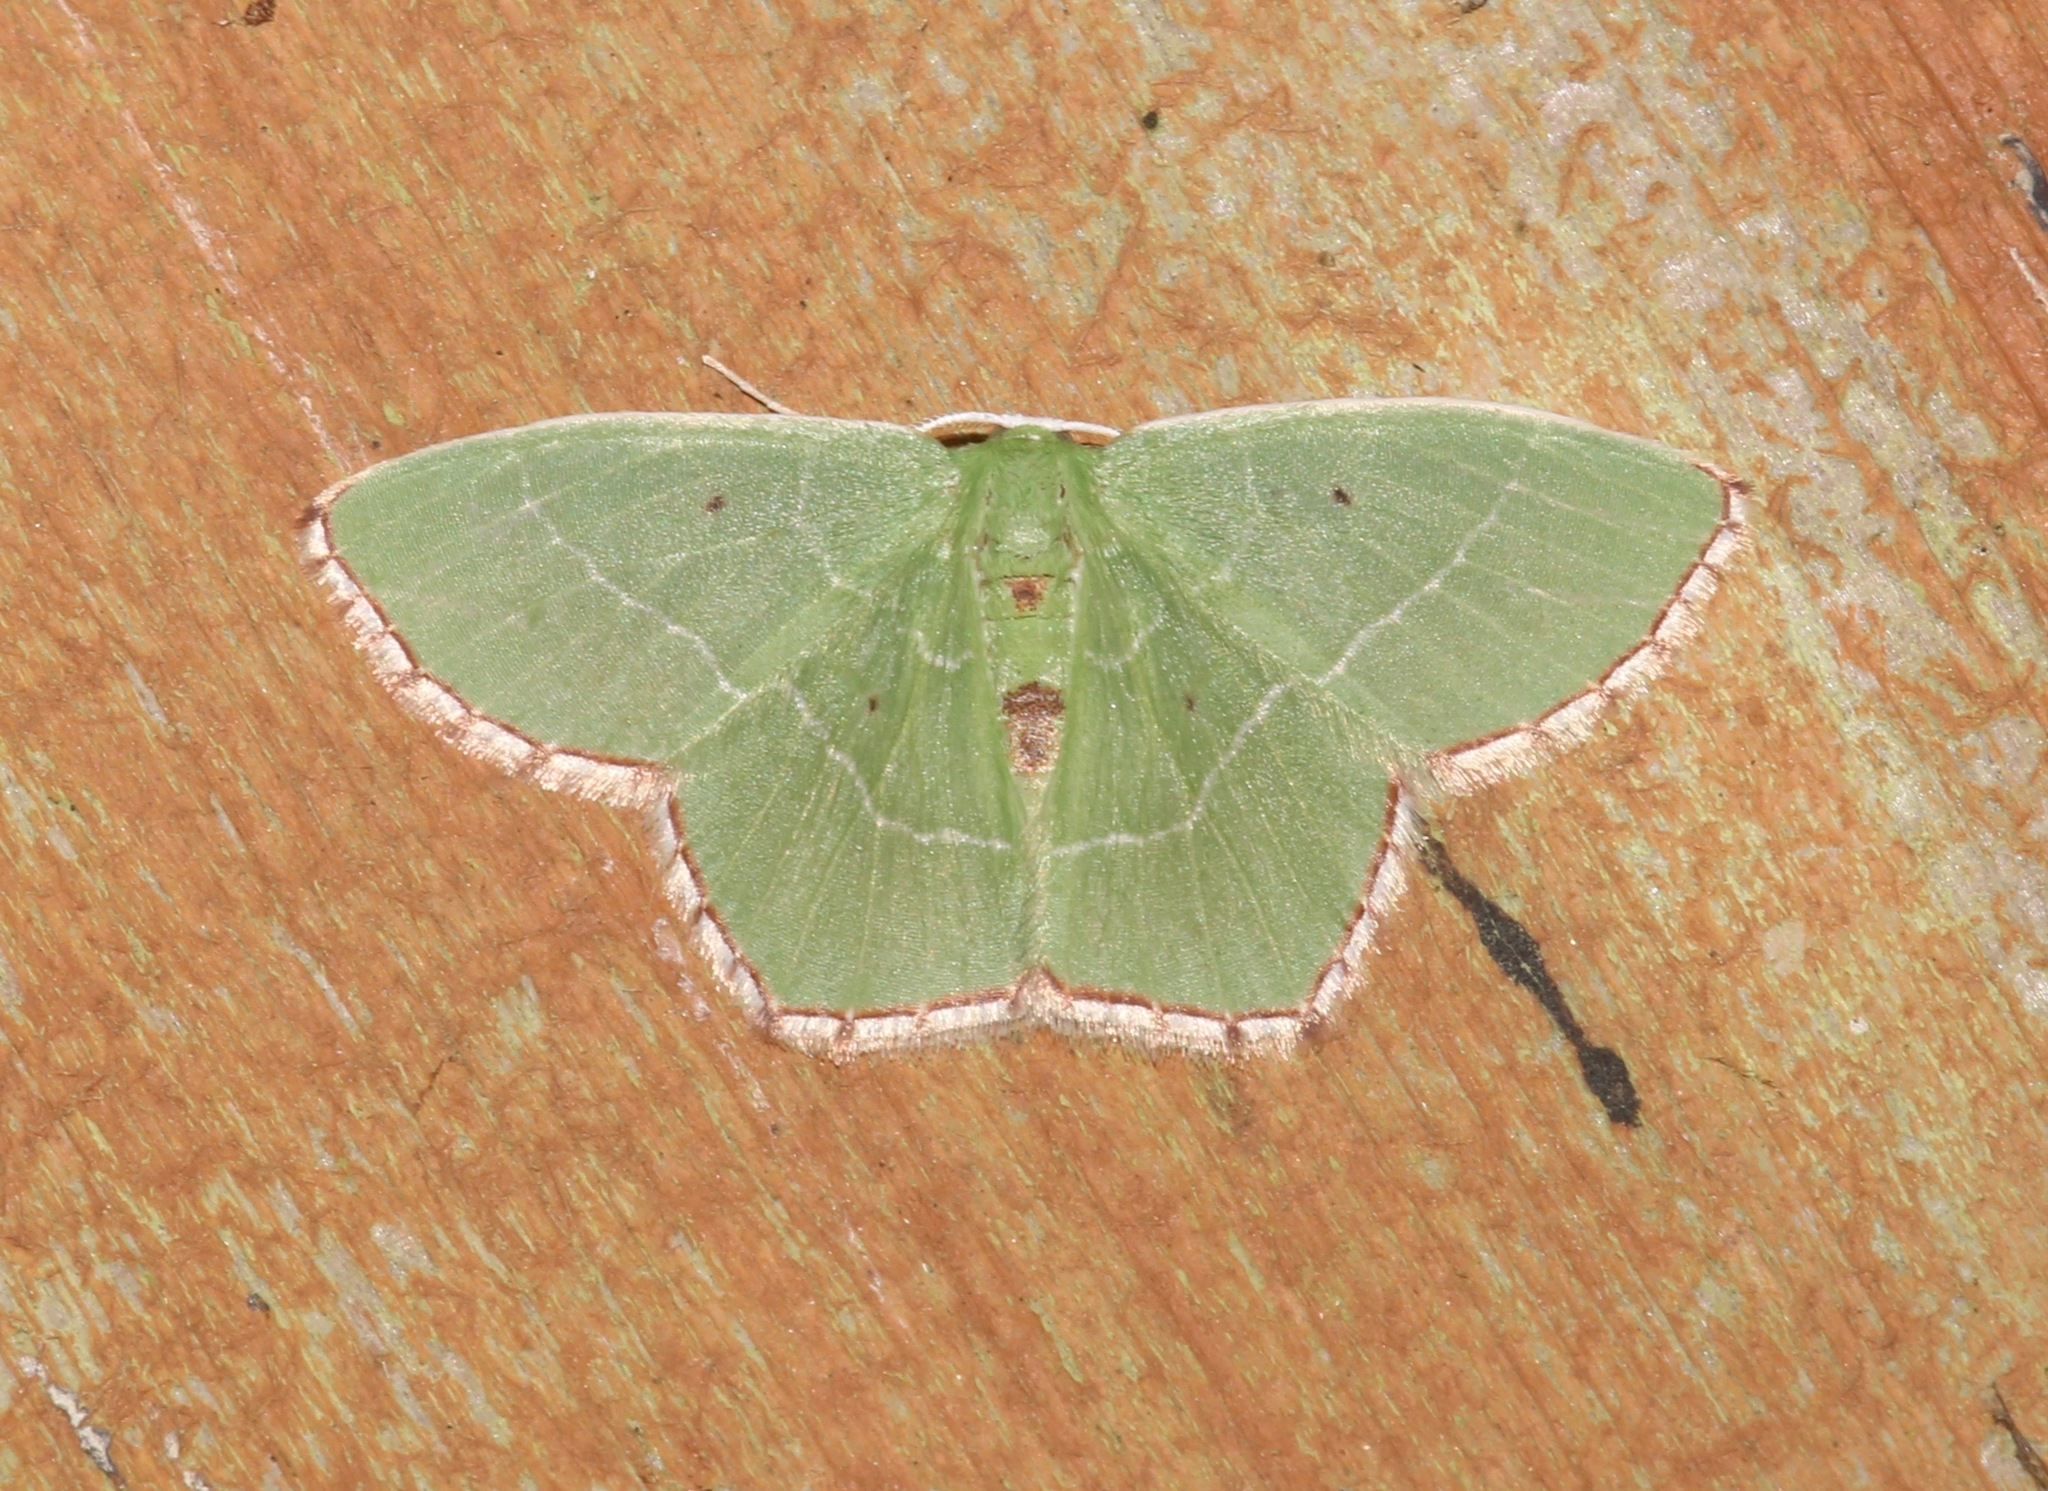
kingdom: Animalia
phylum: Arthropoda
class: Insecta
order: Lepidoptera
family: Geometridae
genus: Nemoria
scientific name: Nemoria saturiba
